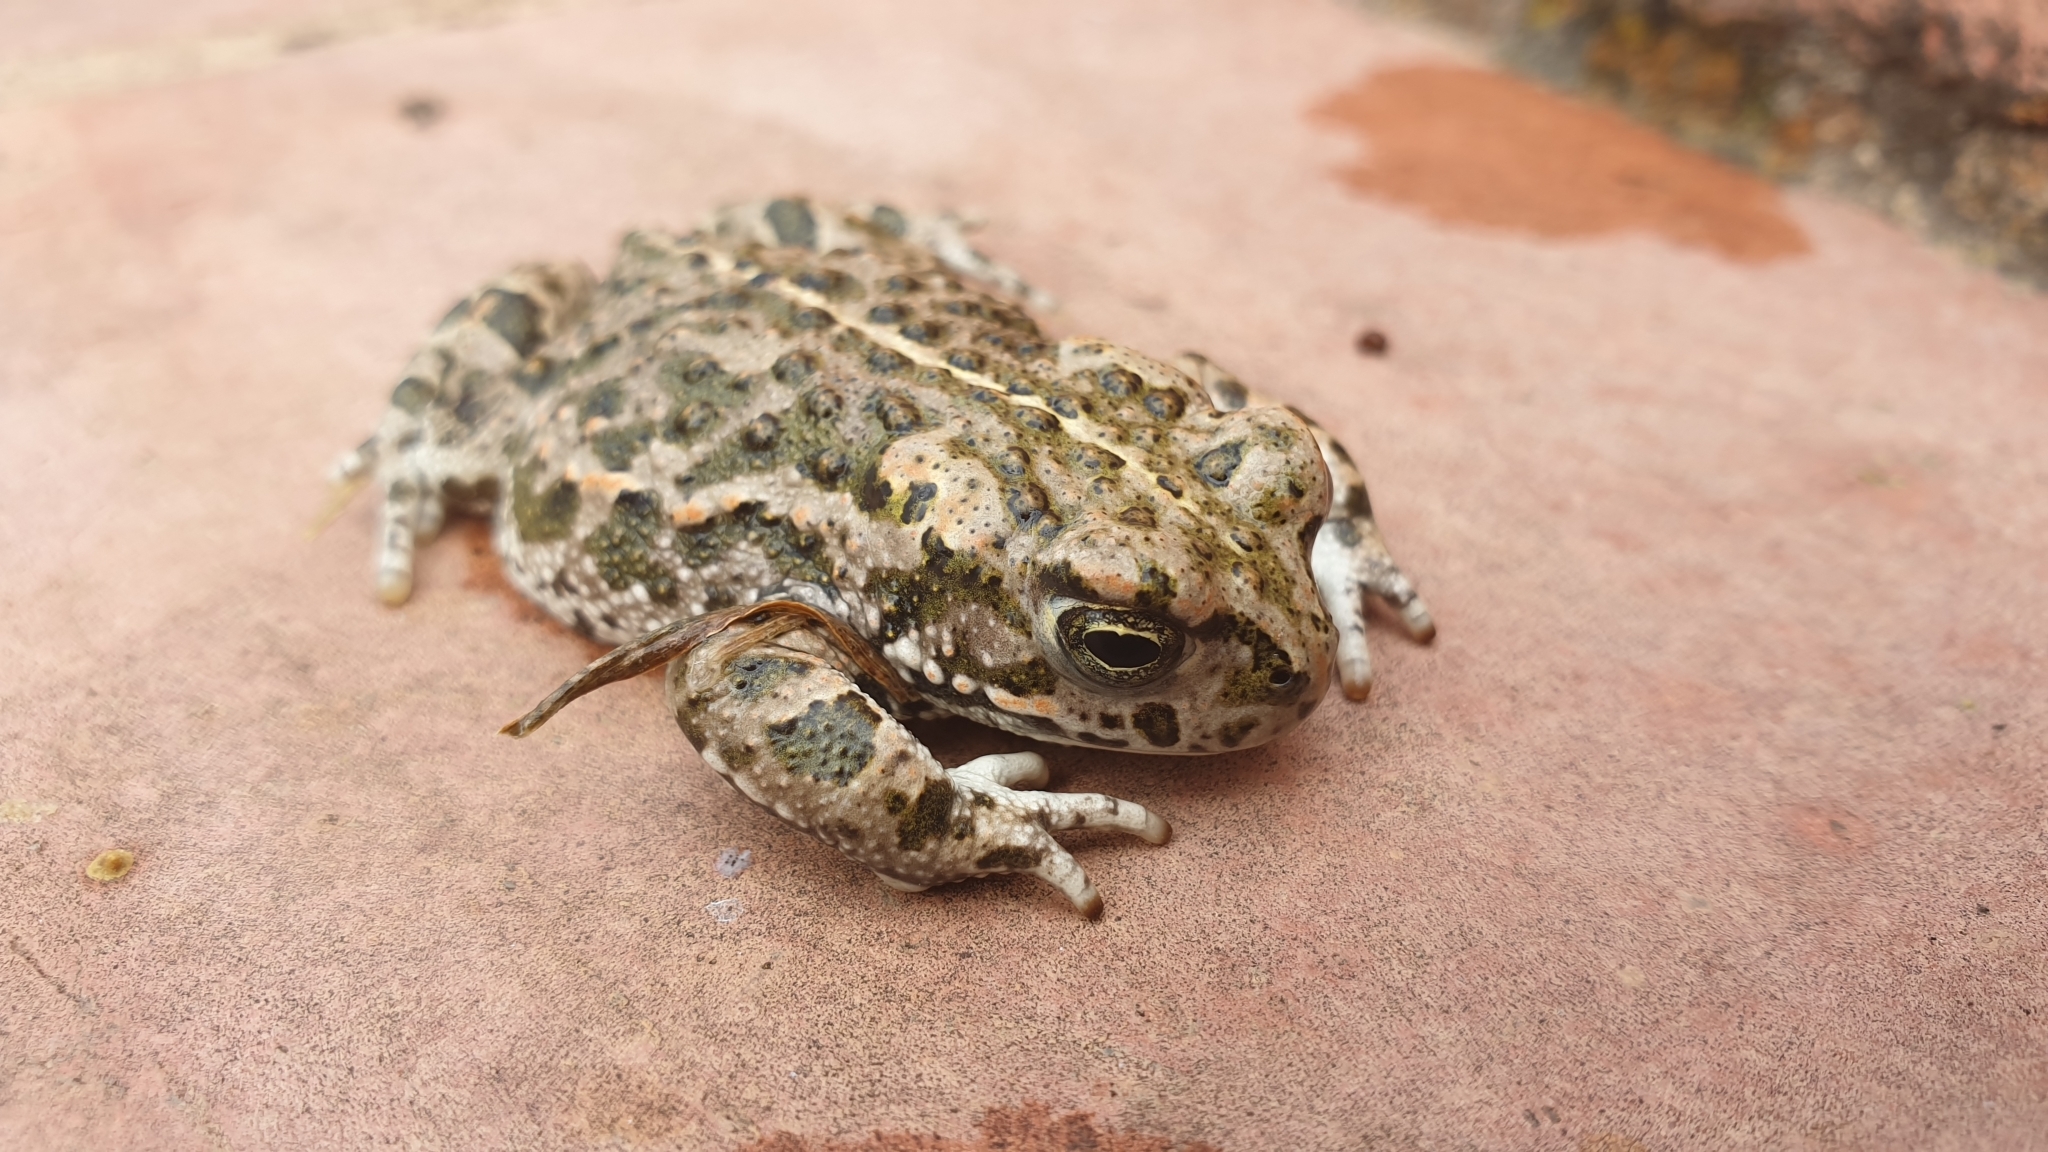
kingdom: Animalia
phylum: Chordata
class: Amphibia
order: Anura
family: Bufonidae
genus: Epidalea
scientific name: Epidalea calamita
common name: Natterjack toad
